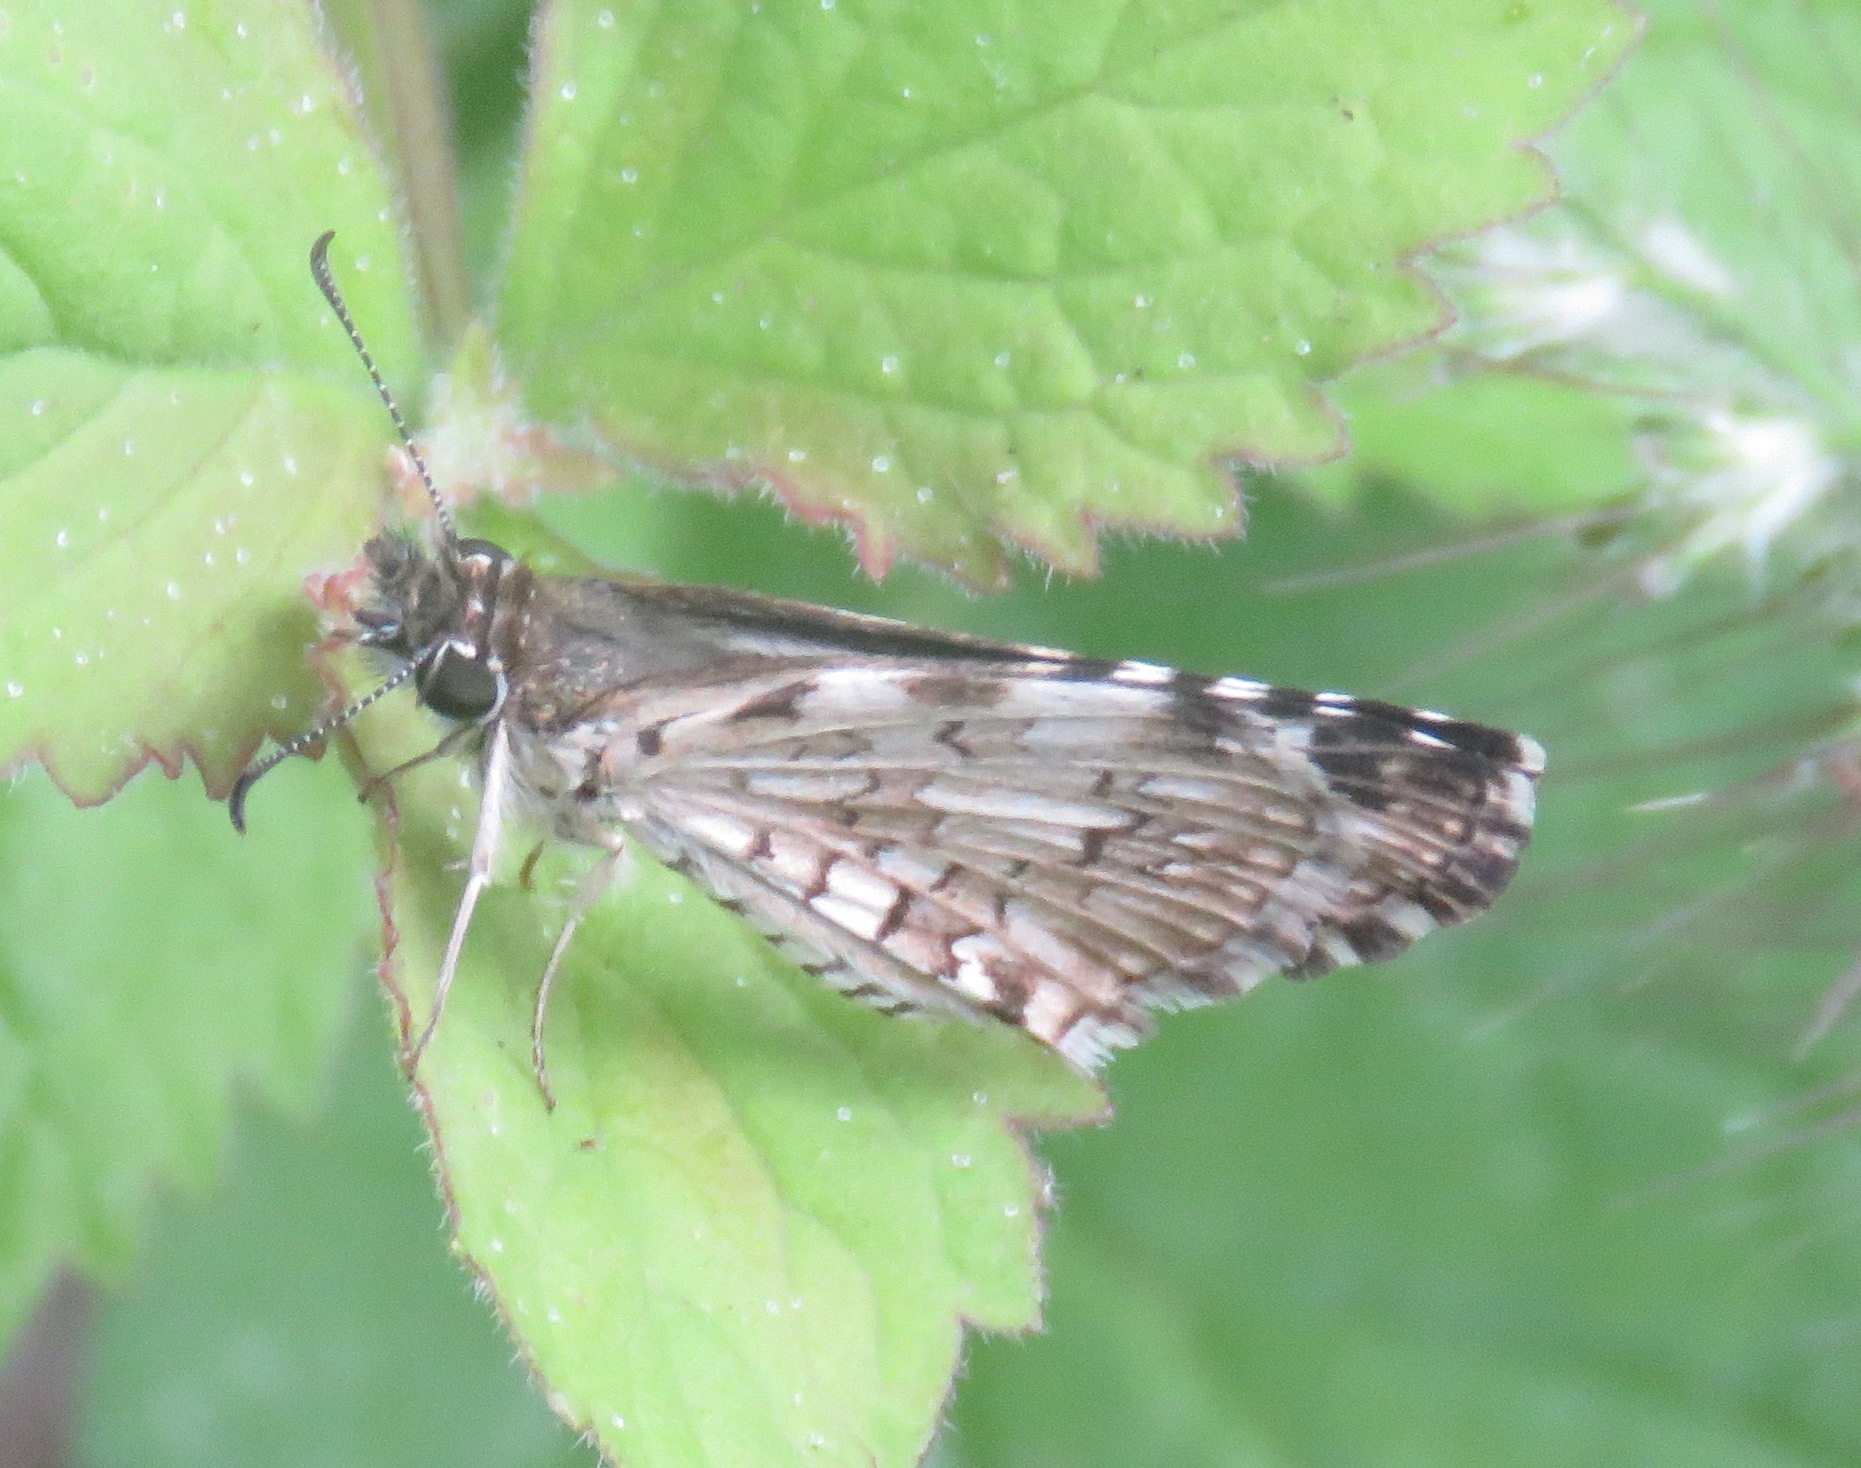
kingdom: Animalia
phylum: Arthropoda
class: Insecta
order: Lepidoptera
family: Hesperiidae
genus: Pyrgus
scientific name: Pyrgus oileus
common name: Tropical checkered-skipper
